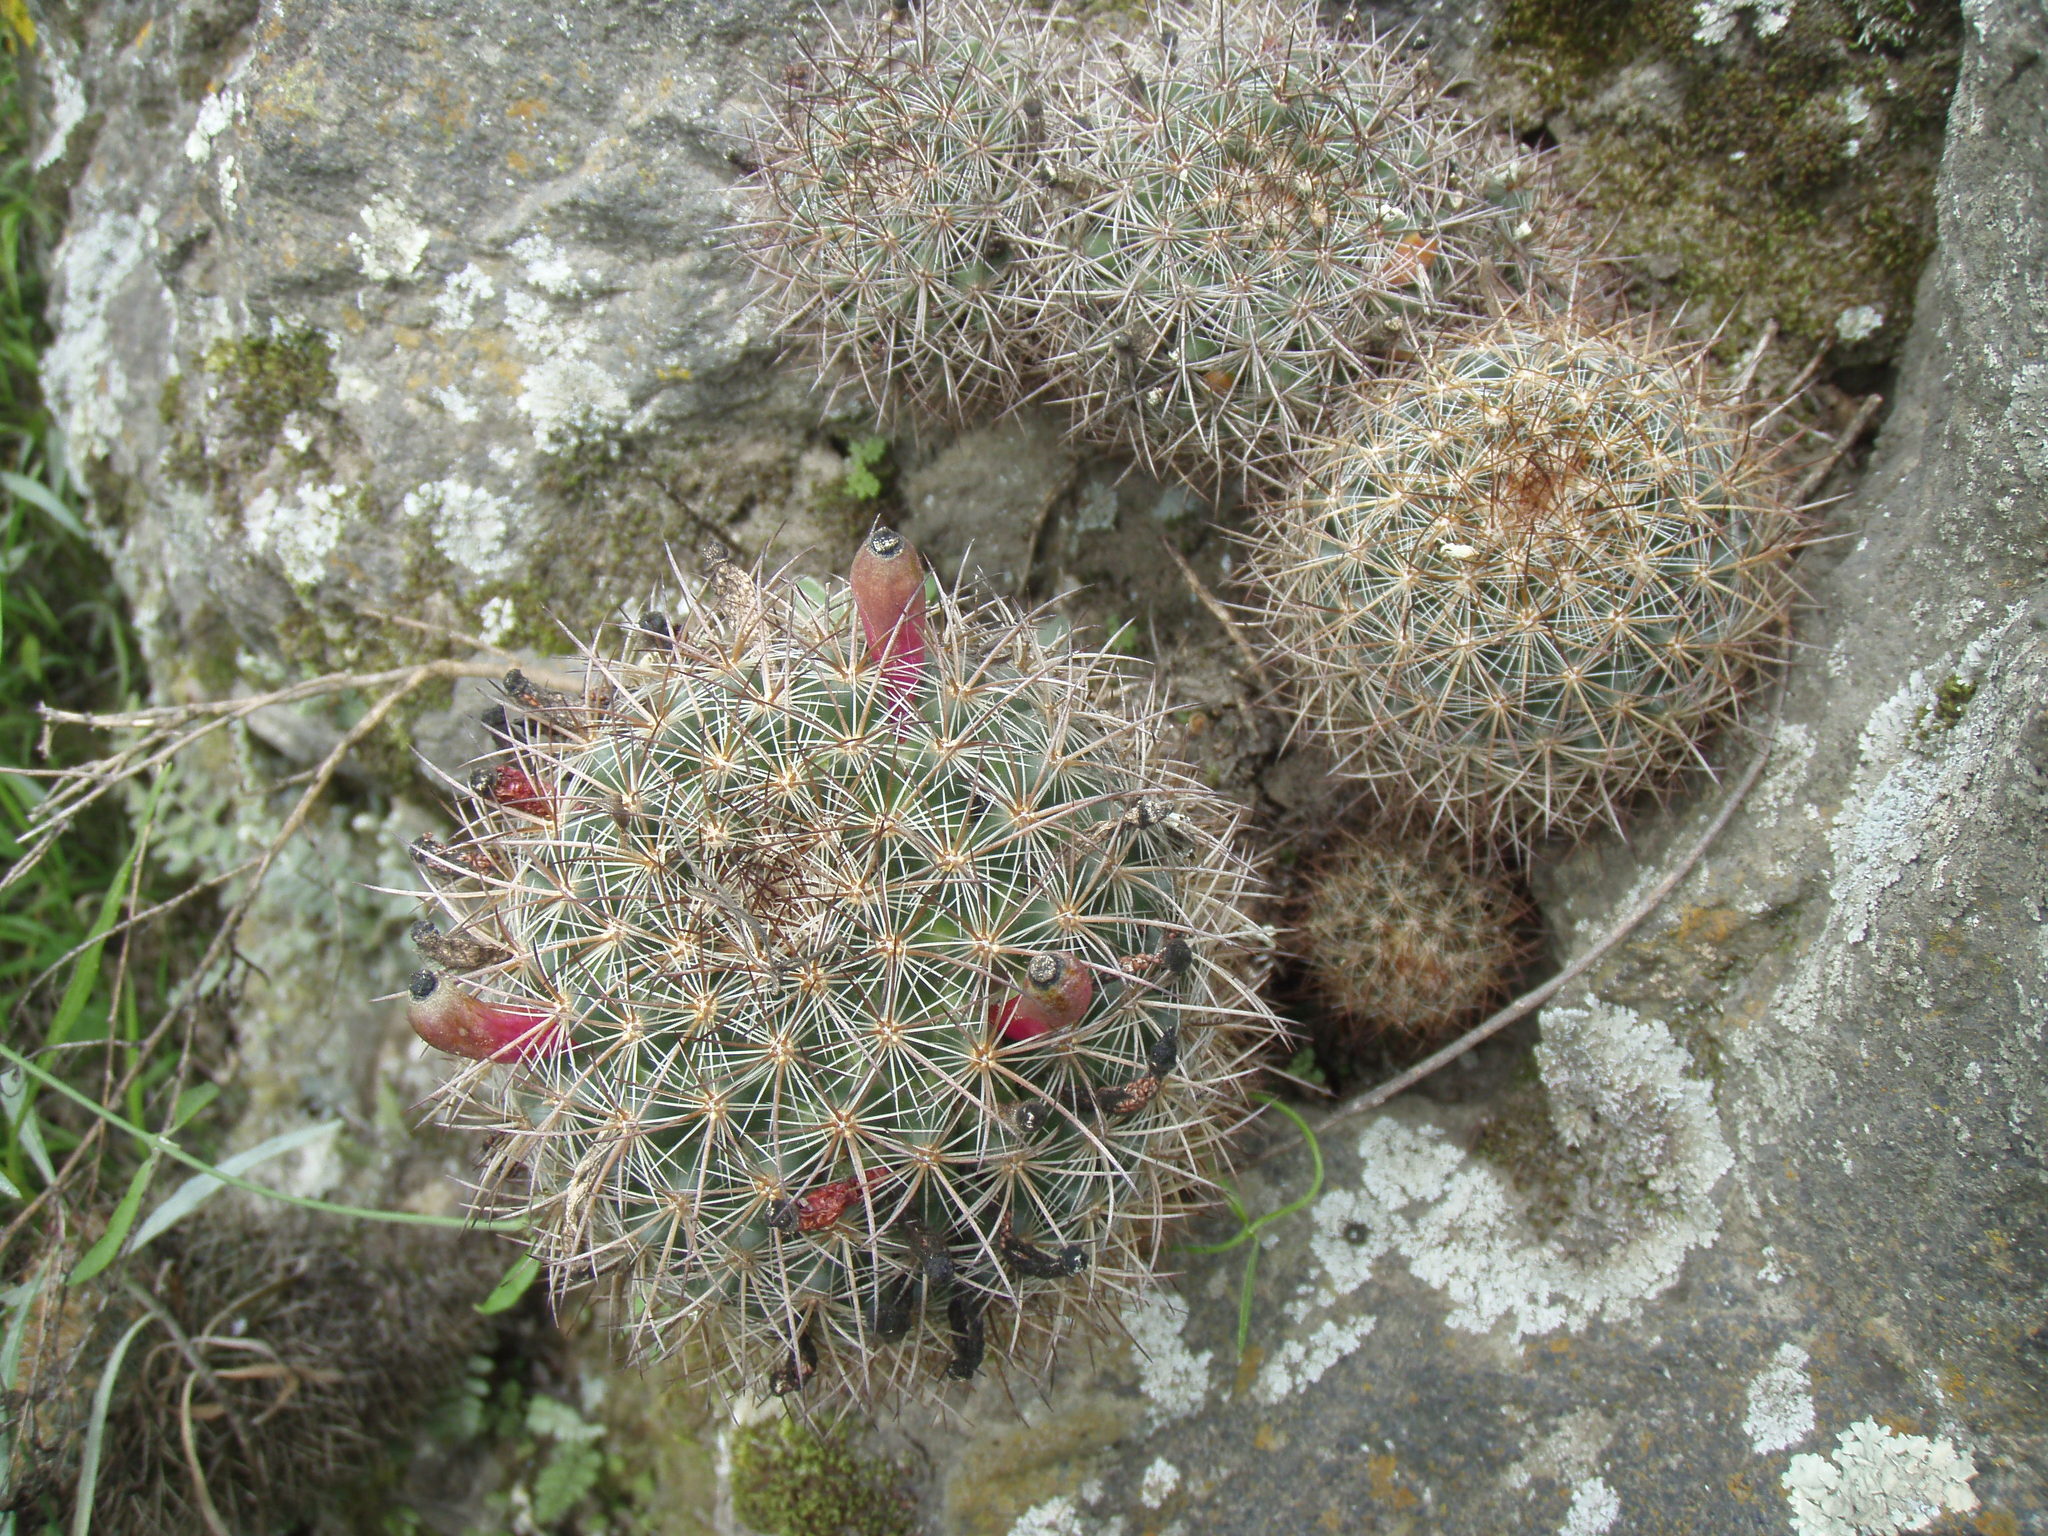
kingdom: Plantae
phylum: Tracheophyta
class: Magnoliopsida
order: Caryophyllales
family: Cactaceae
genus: Mammillaria
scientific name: Mammillaria discolor
